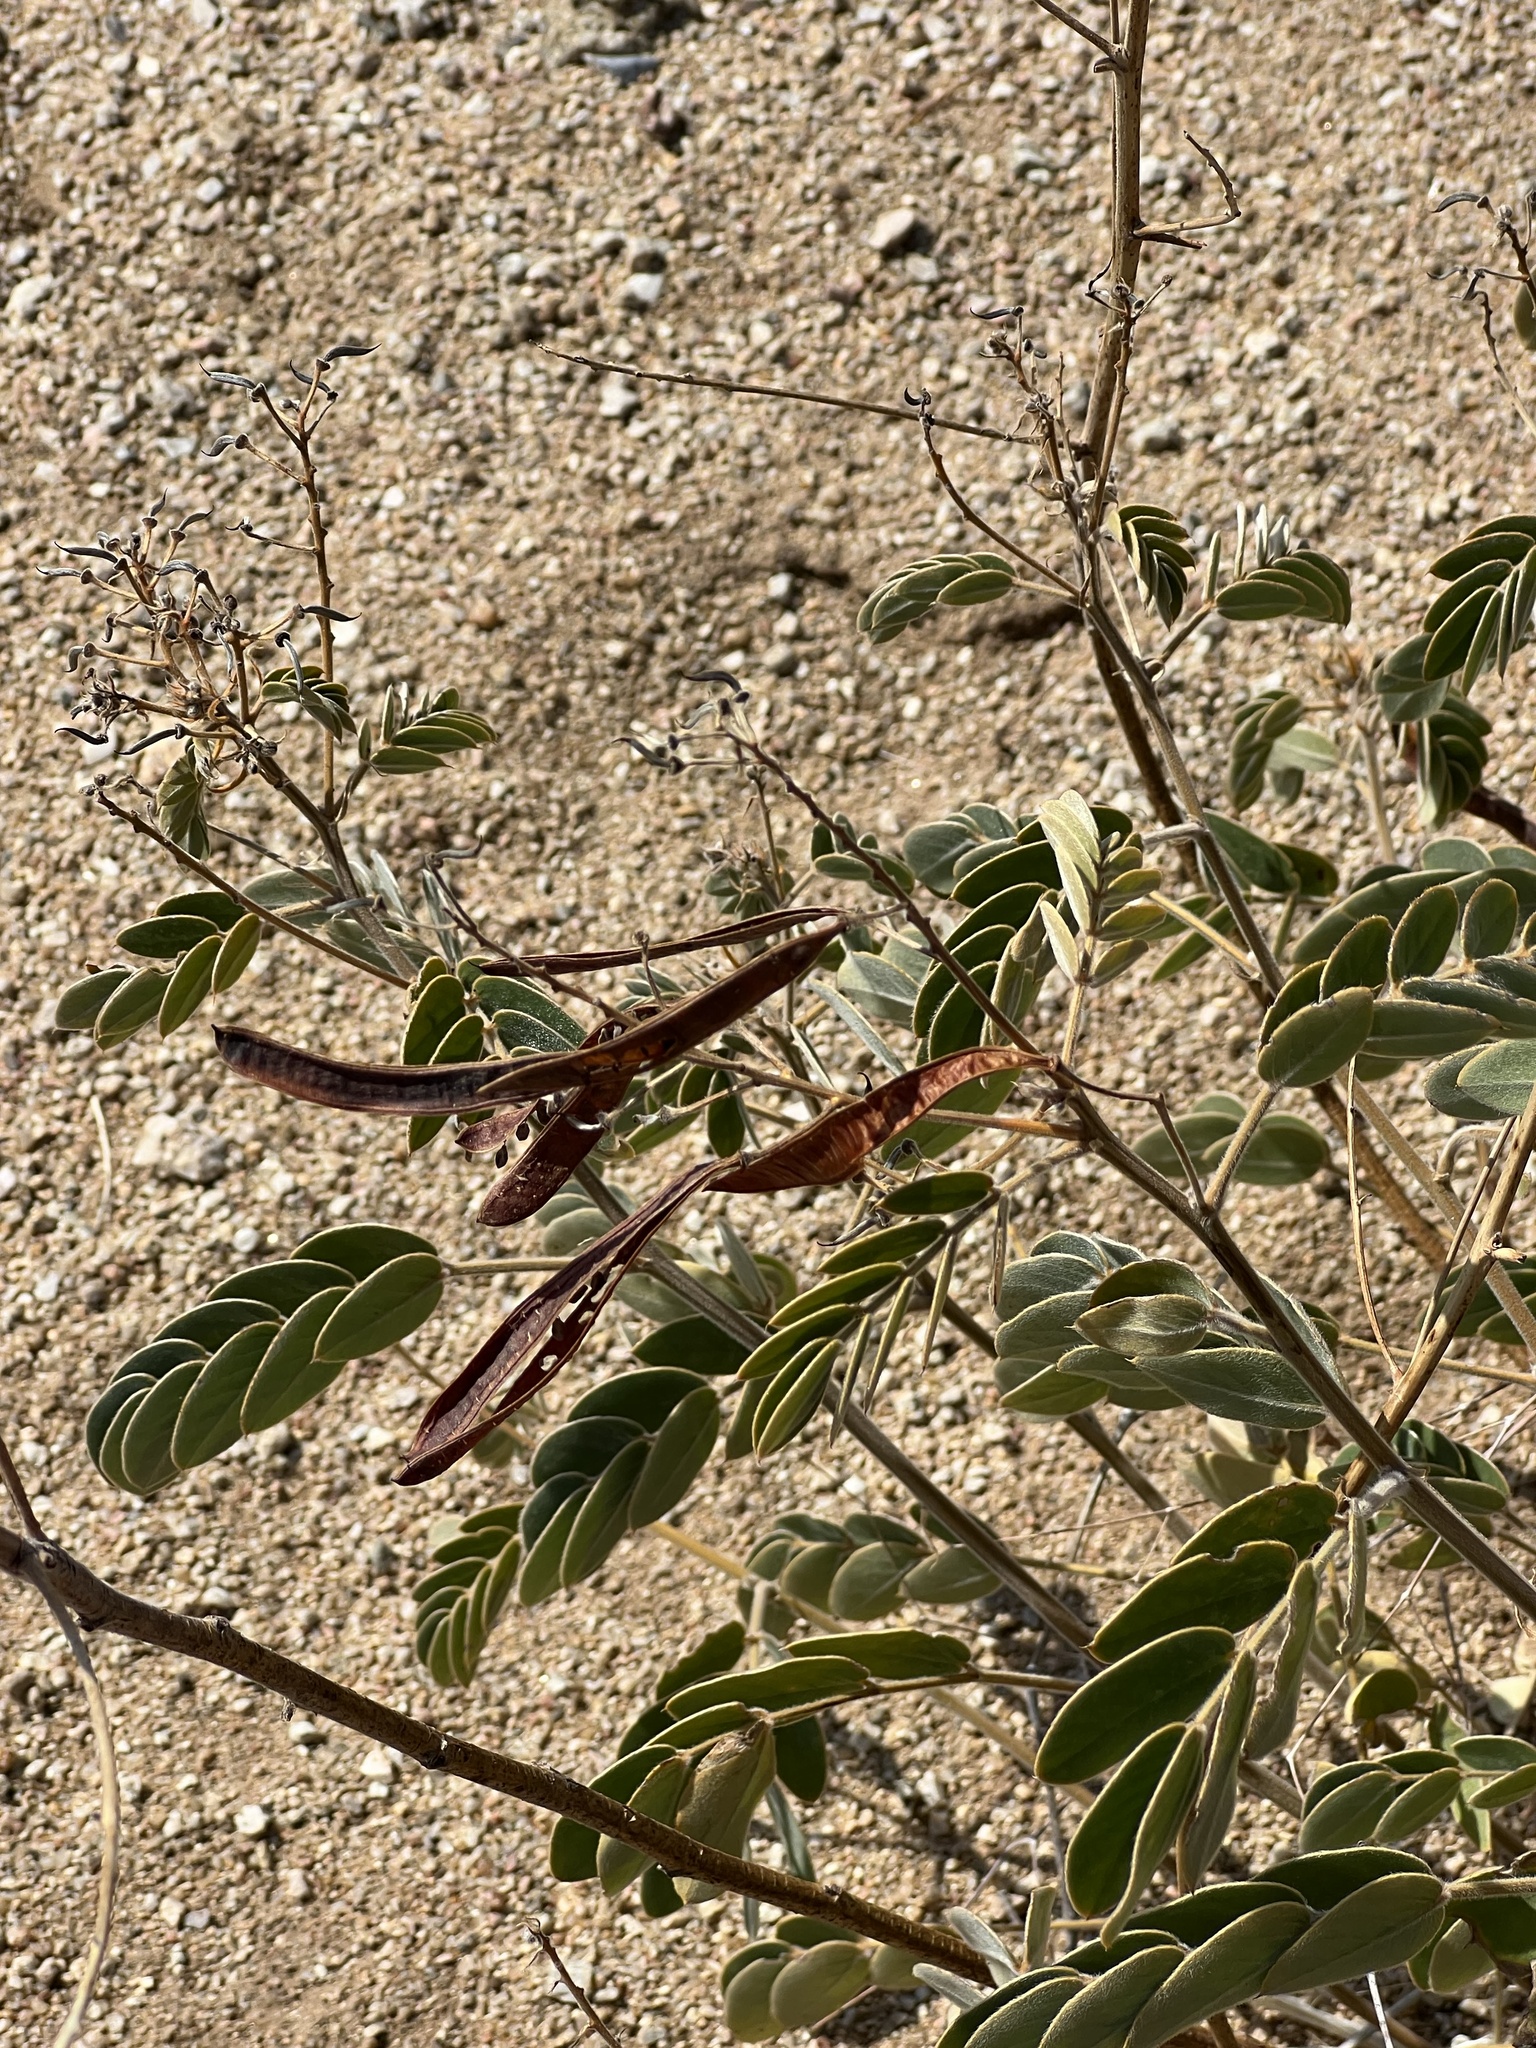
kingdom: Plantae
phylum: Tracheophyta
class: Magnoliopsida
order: Fabales
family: Fabaceae
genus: Senna
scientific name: Senna lindheimeriana
